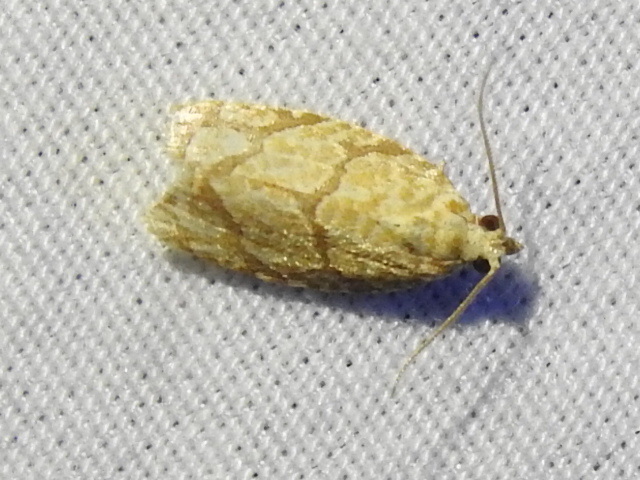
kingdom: Animalia
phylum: Arthropoda
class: Insecta
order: Lepidoptera
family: Tortricidae
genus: Argyrotaenia
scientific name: Argyrotaenia quercifoliana
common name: Yellow-winged oak leafroller moth
